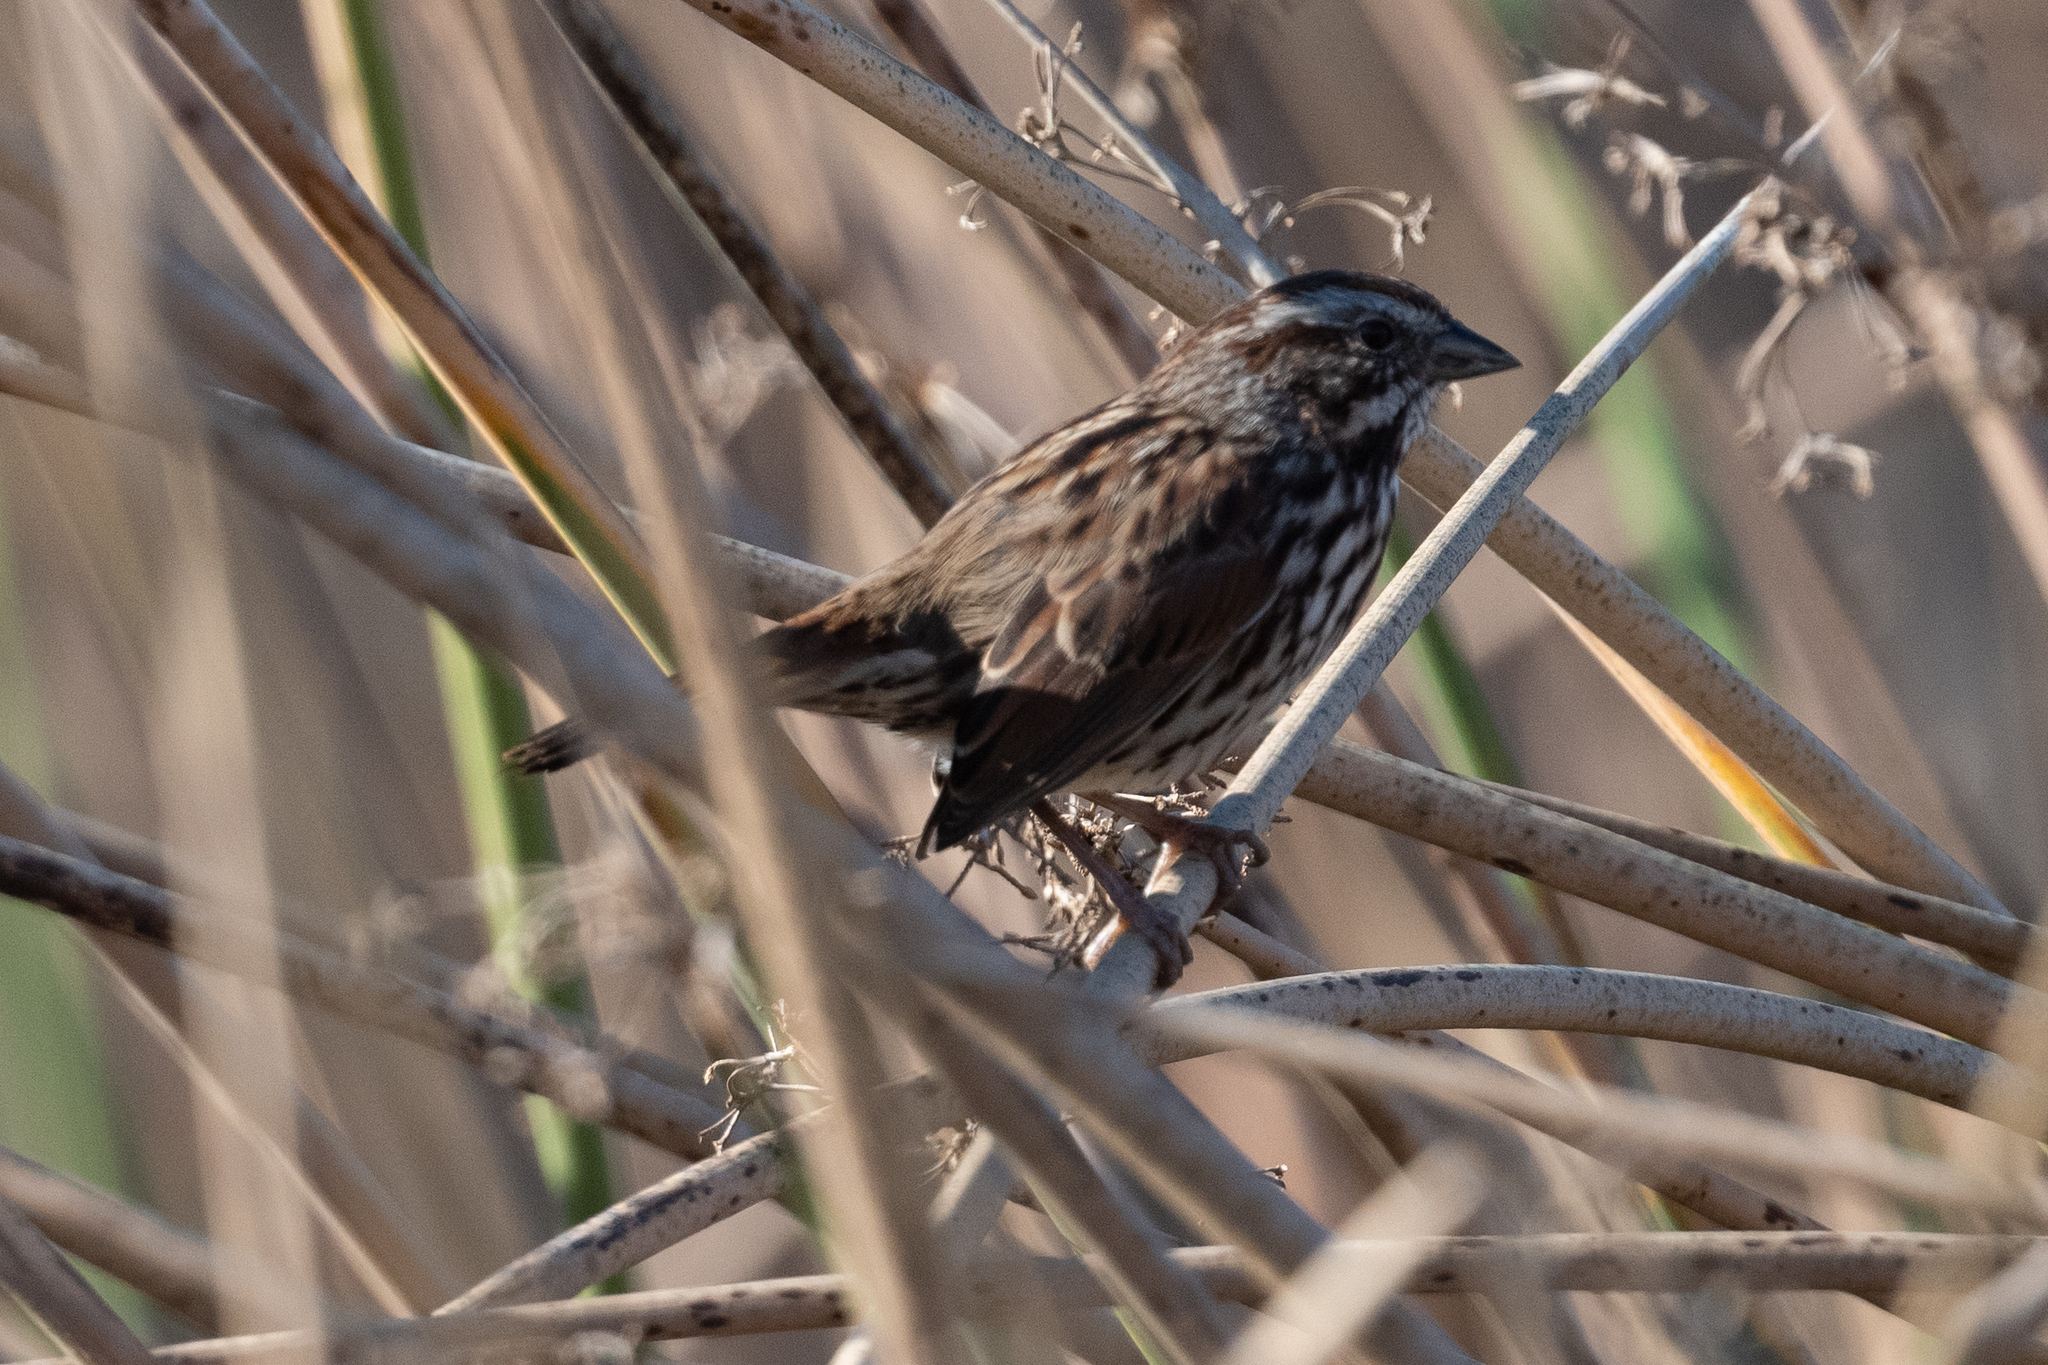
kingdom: Animalia
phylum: Chordata
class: Aves
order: Passeriformes
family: Passerellidae
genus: Melospiza
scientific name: Melospiza melodia
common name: Song sparrow
